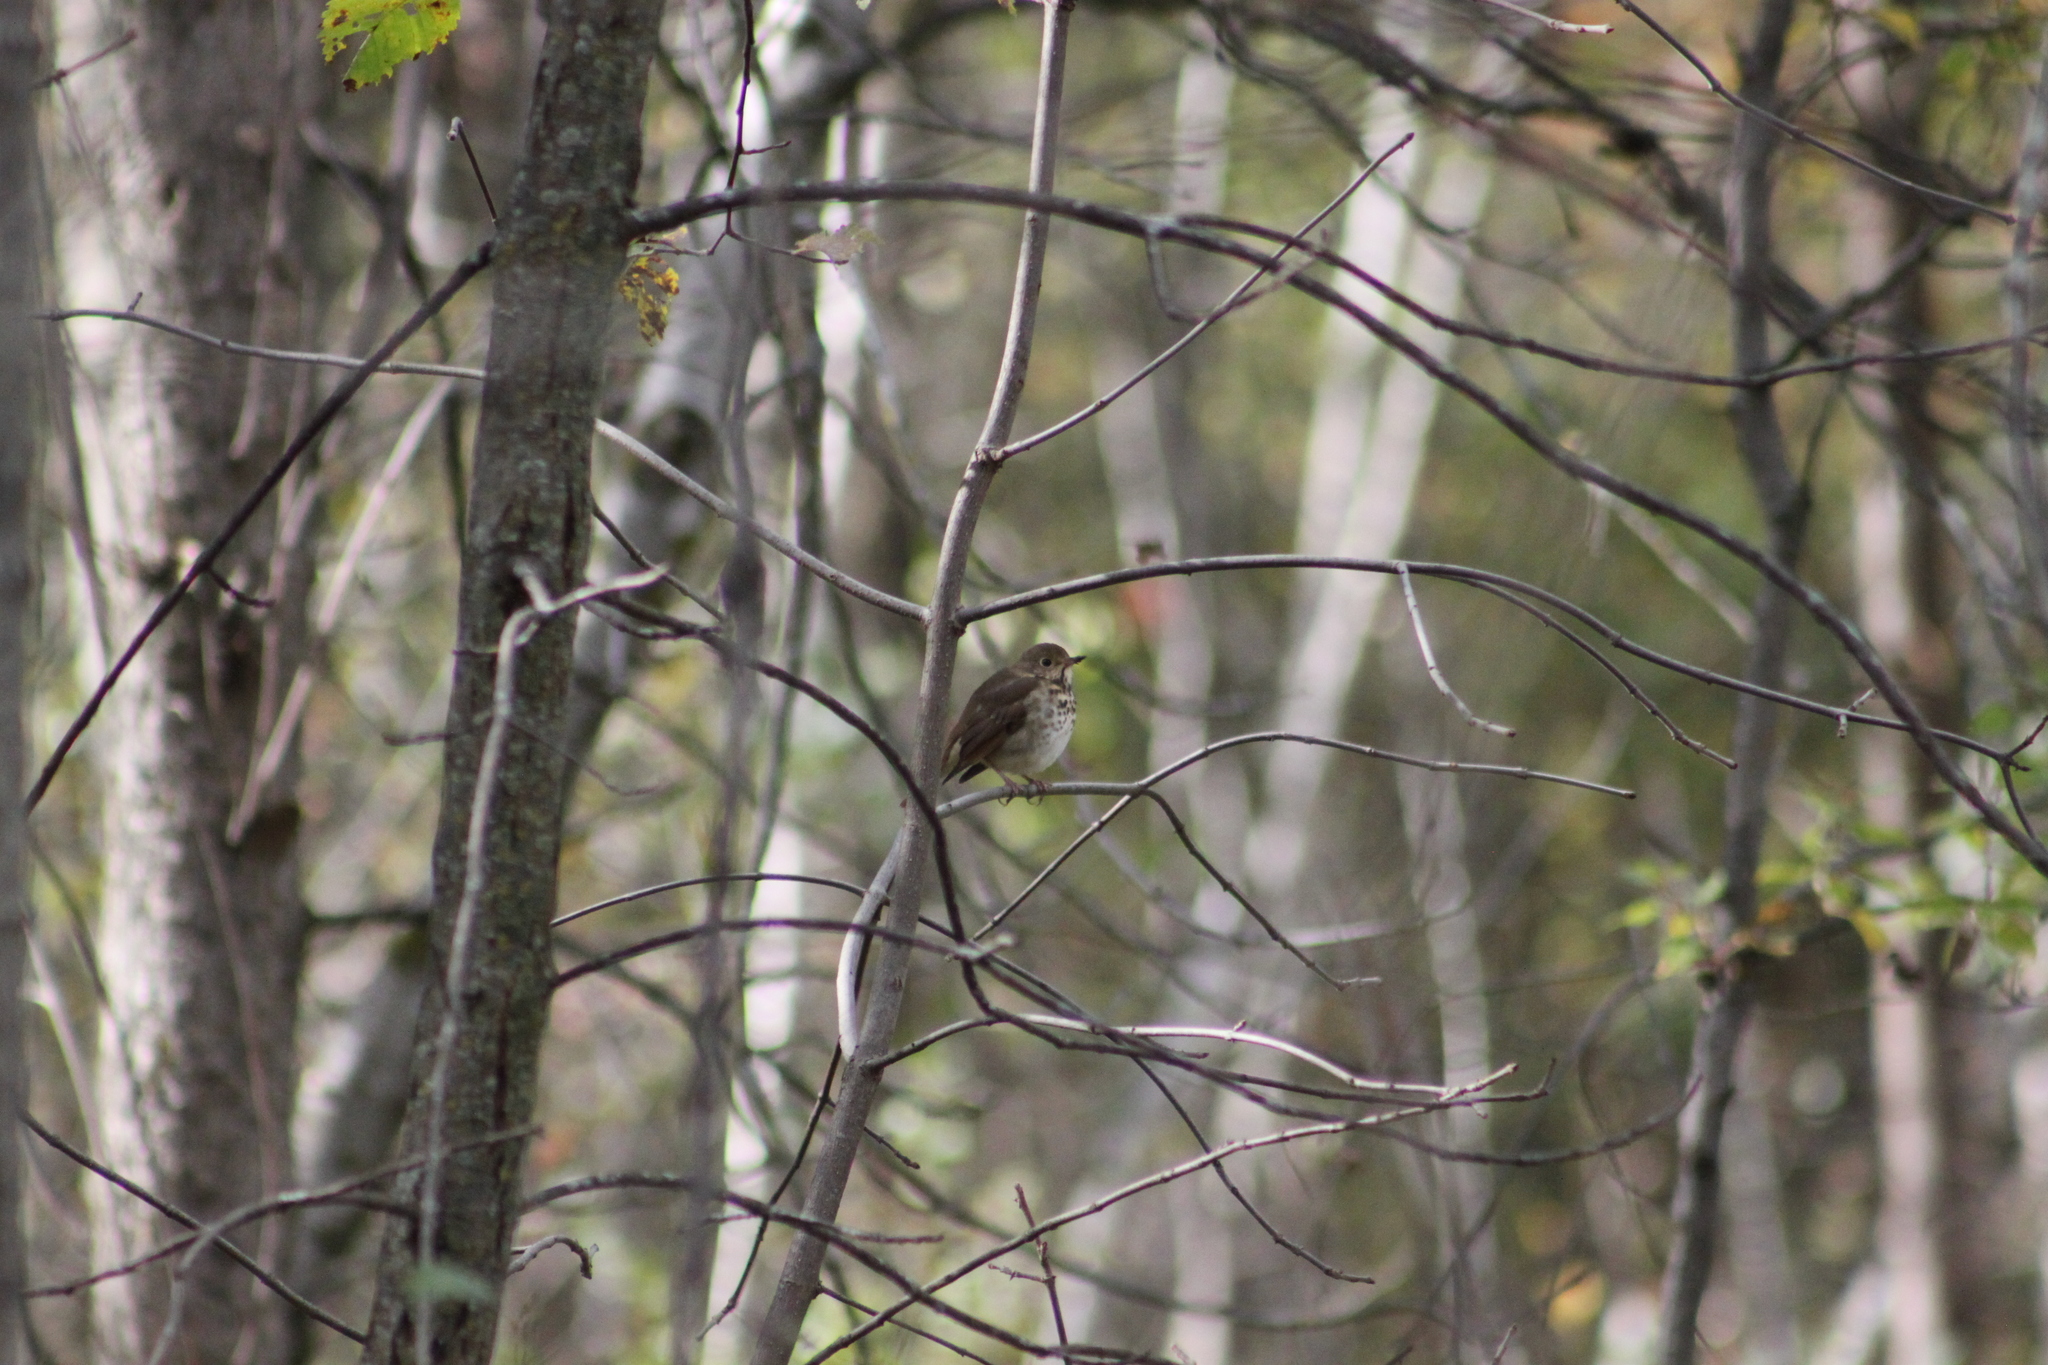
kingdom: Animalia
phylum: Chordata
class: Aves
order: Passeriformes
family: Turdidae
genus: Catharus
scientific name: Catharus guttatus
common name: Hermit thrush
